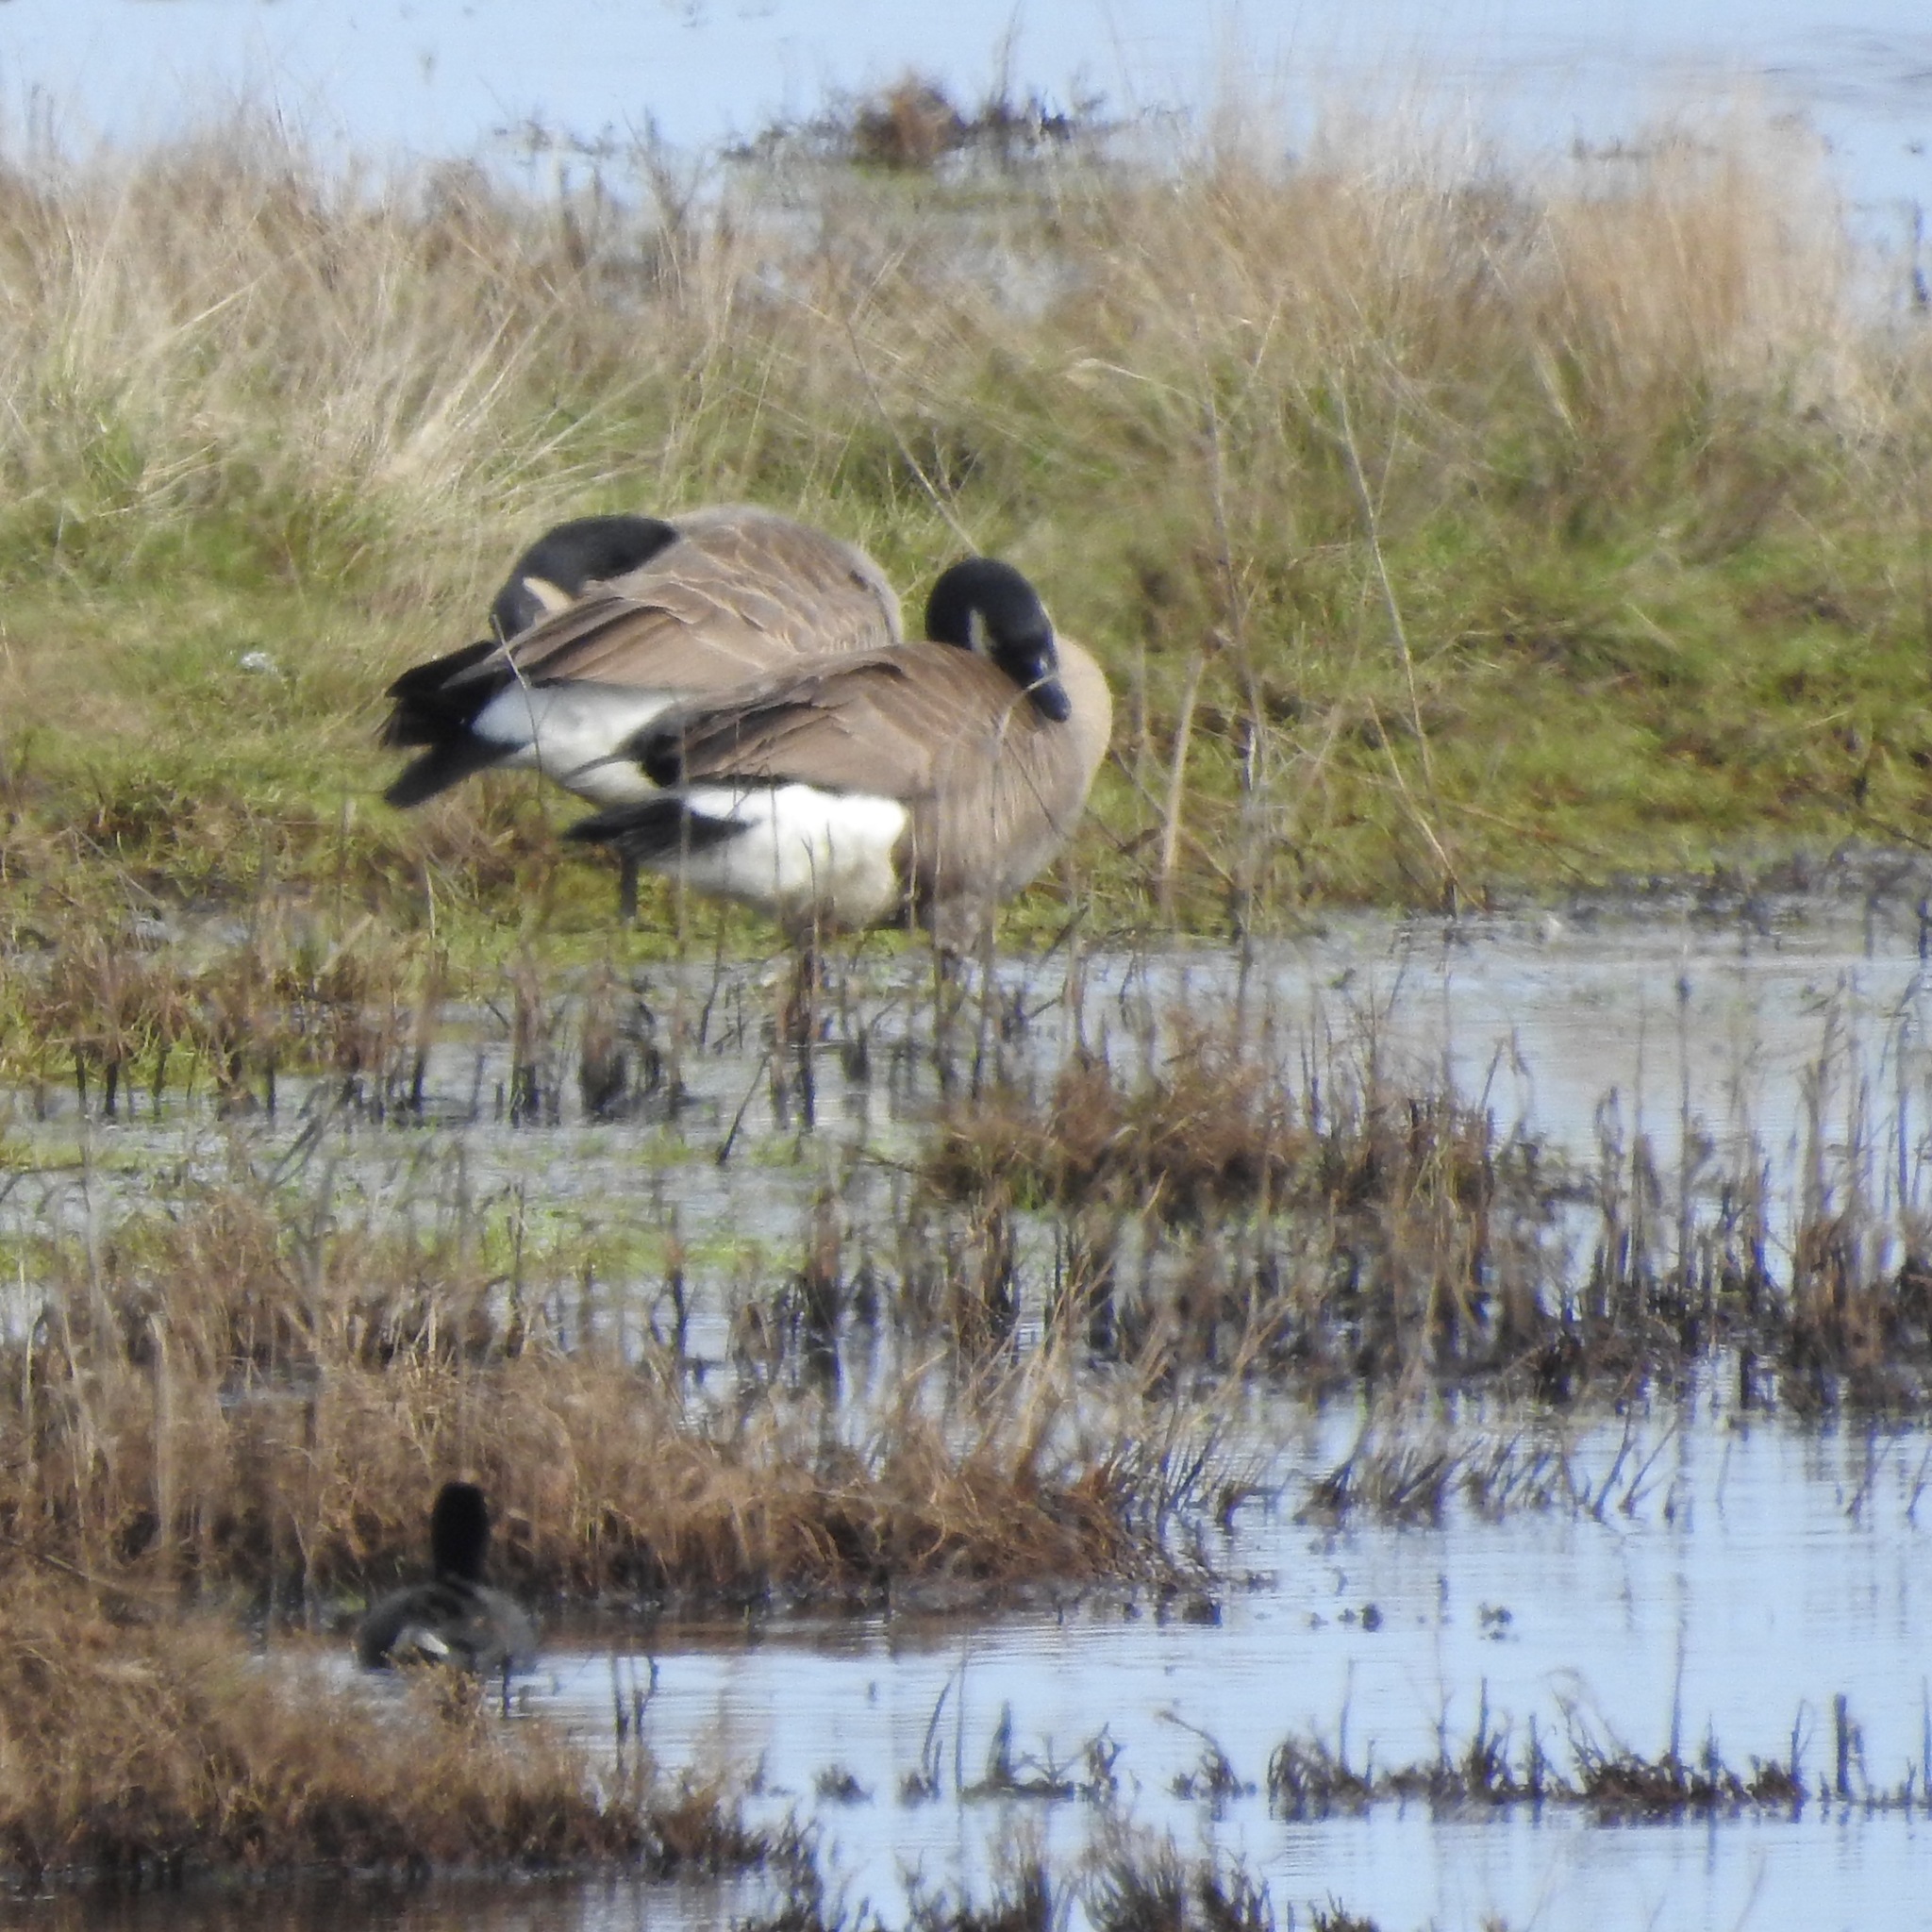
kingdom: Animalia
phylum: Chordata
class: Aves
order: Anseriformes
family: Anatidae
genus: Branta
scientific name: Branta canadensis
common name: Canada goose
